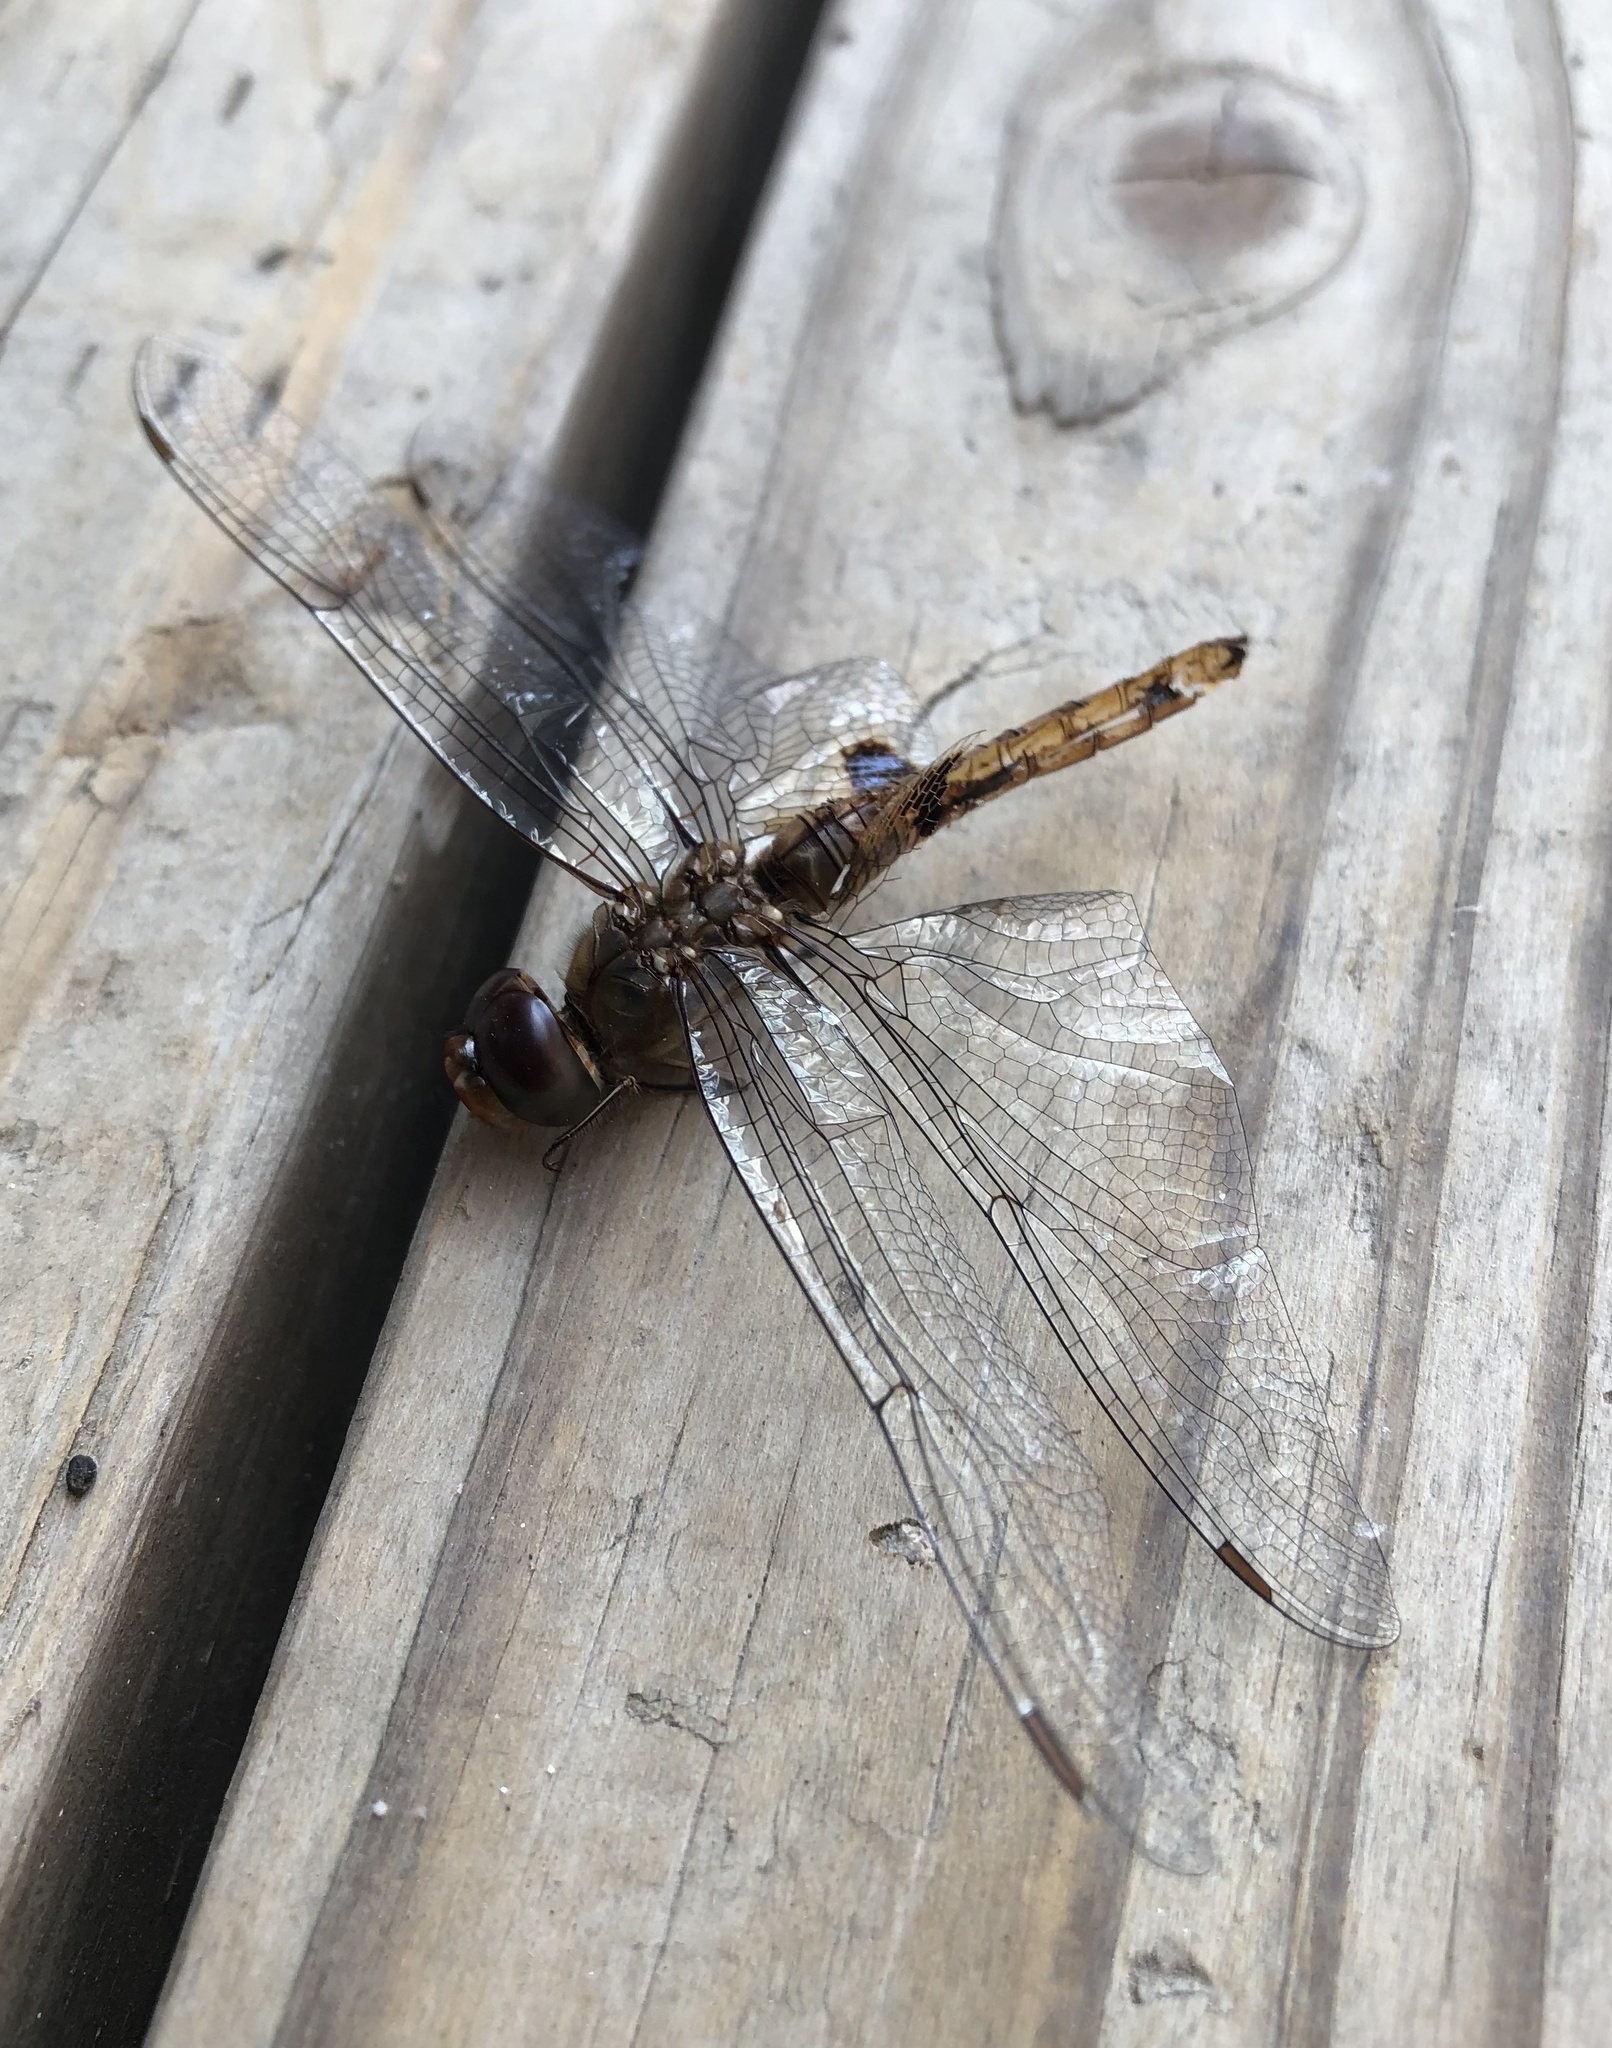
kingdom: Animalia
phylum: Arthropoda
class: Insecta
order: Odonata
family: Libellulidae
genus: Pantala
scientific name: Pantala hymenaea
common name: Spot-winged glider
